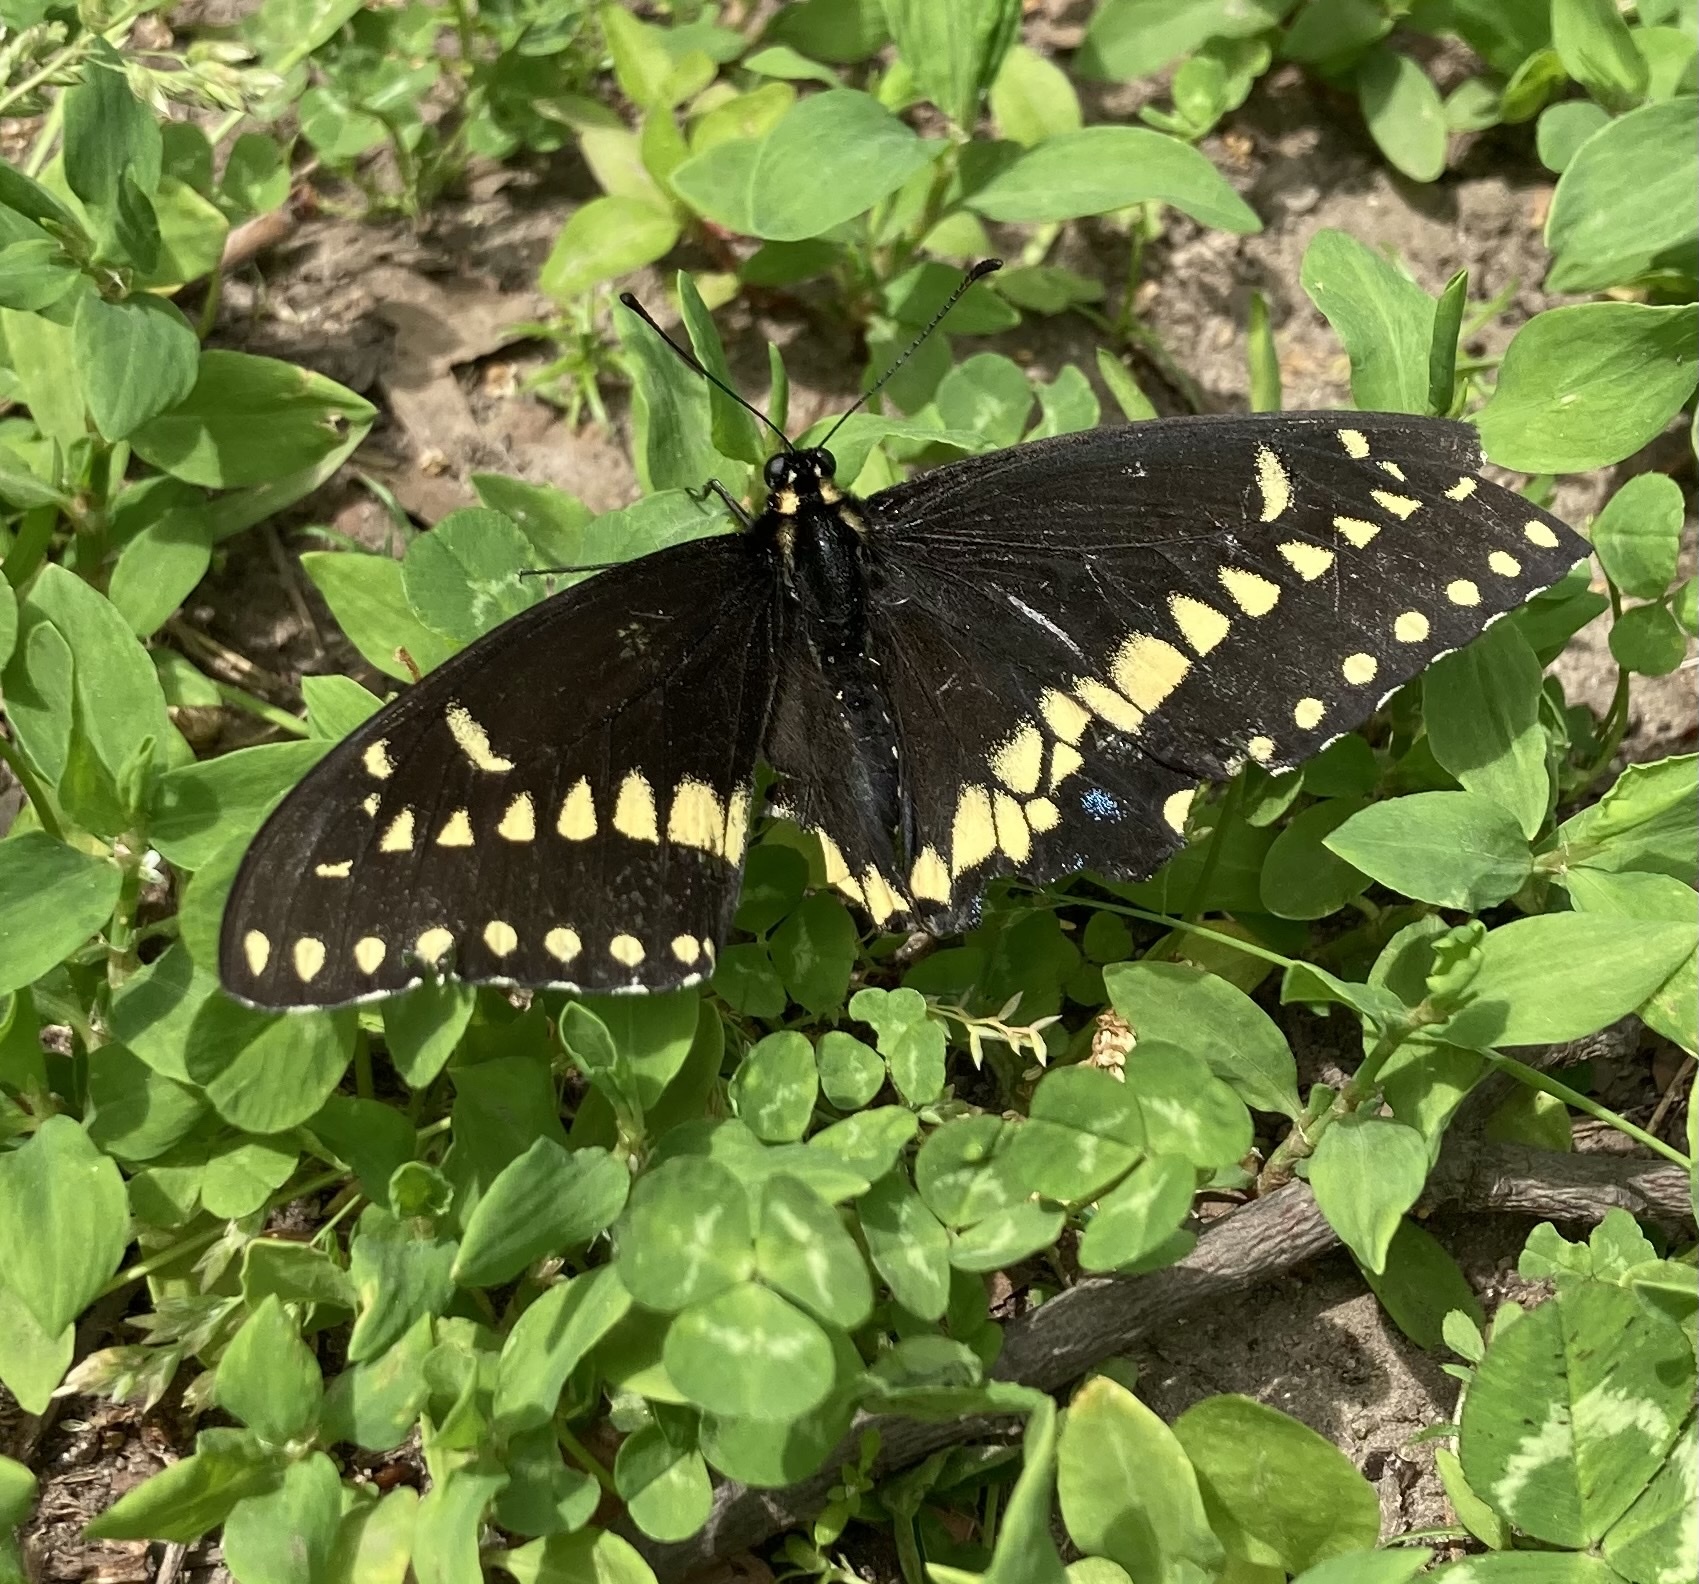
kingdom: Animalia
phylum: Arthropoda
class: Insecta
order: Lepidoptera
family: Papilionidae
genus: Papilio
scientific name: Papilio polyxenes
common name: Black swallowtail
